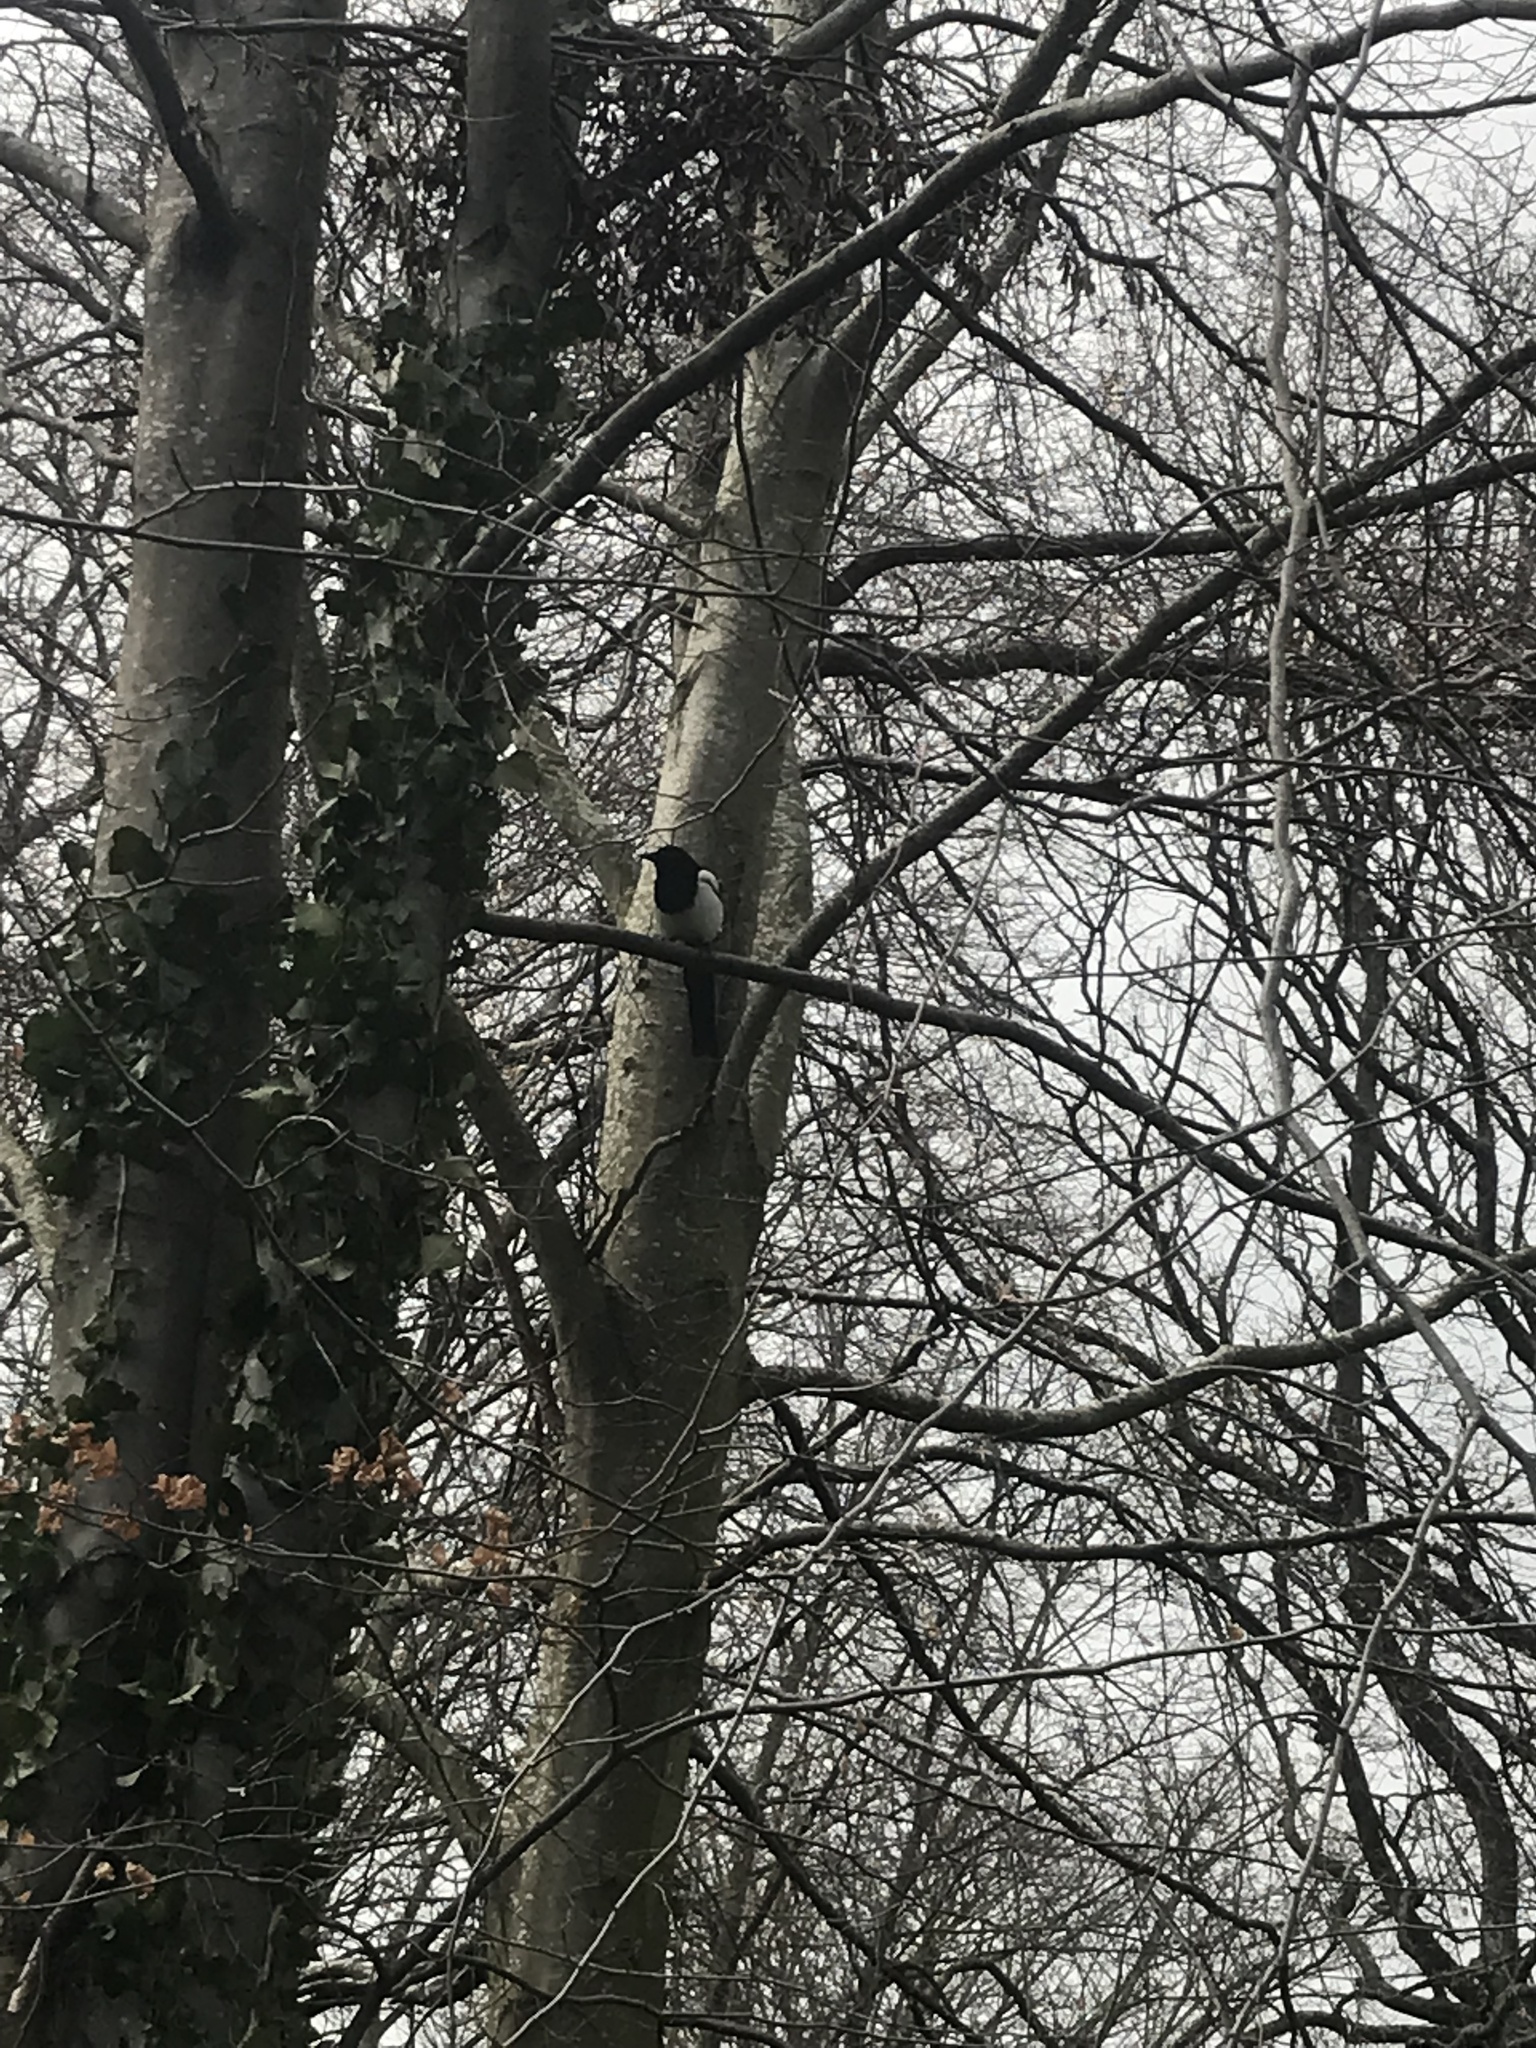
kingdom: Animalia
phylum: Chordata
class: Aves
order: Passeriformes
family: Corvidae
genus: Pica
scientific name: Pica pica
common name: Eurasian magpie
